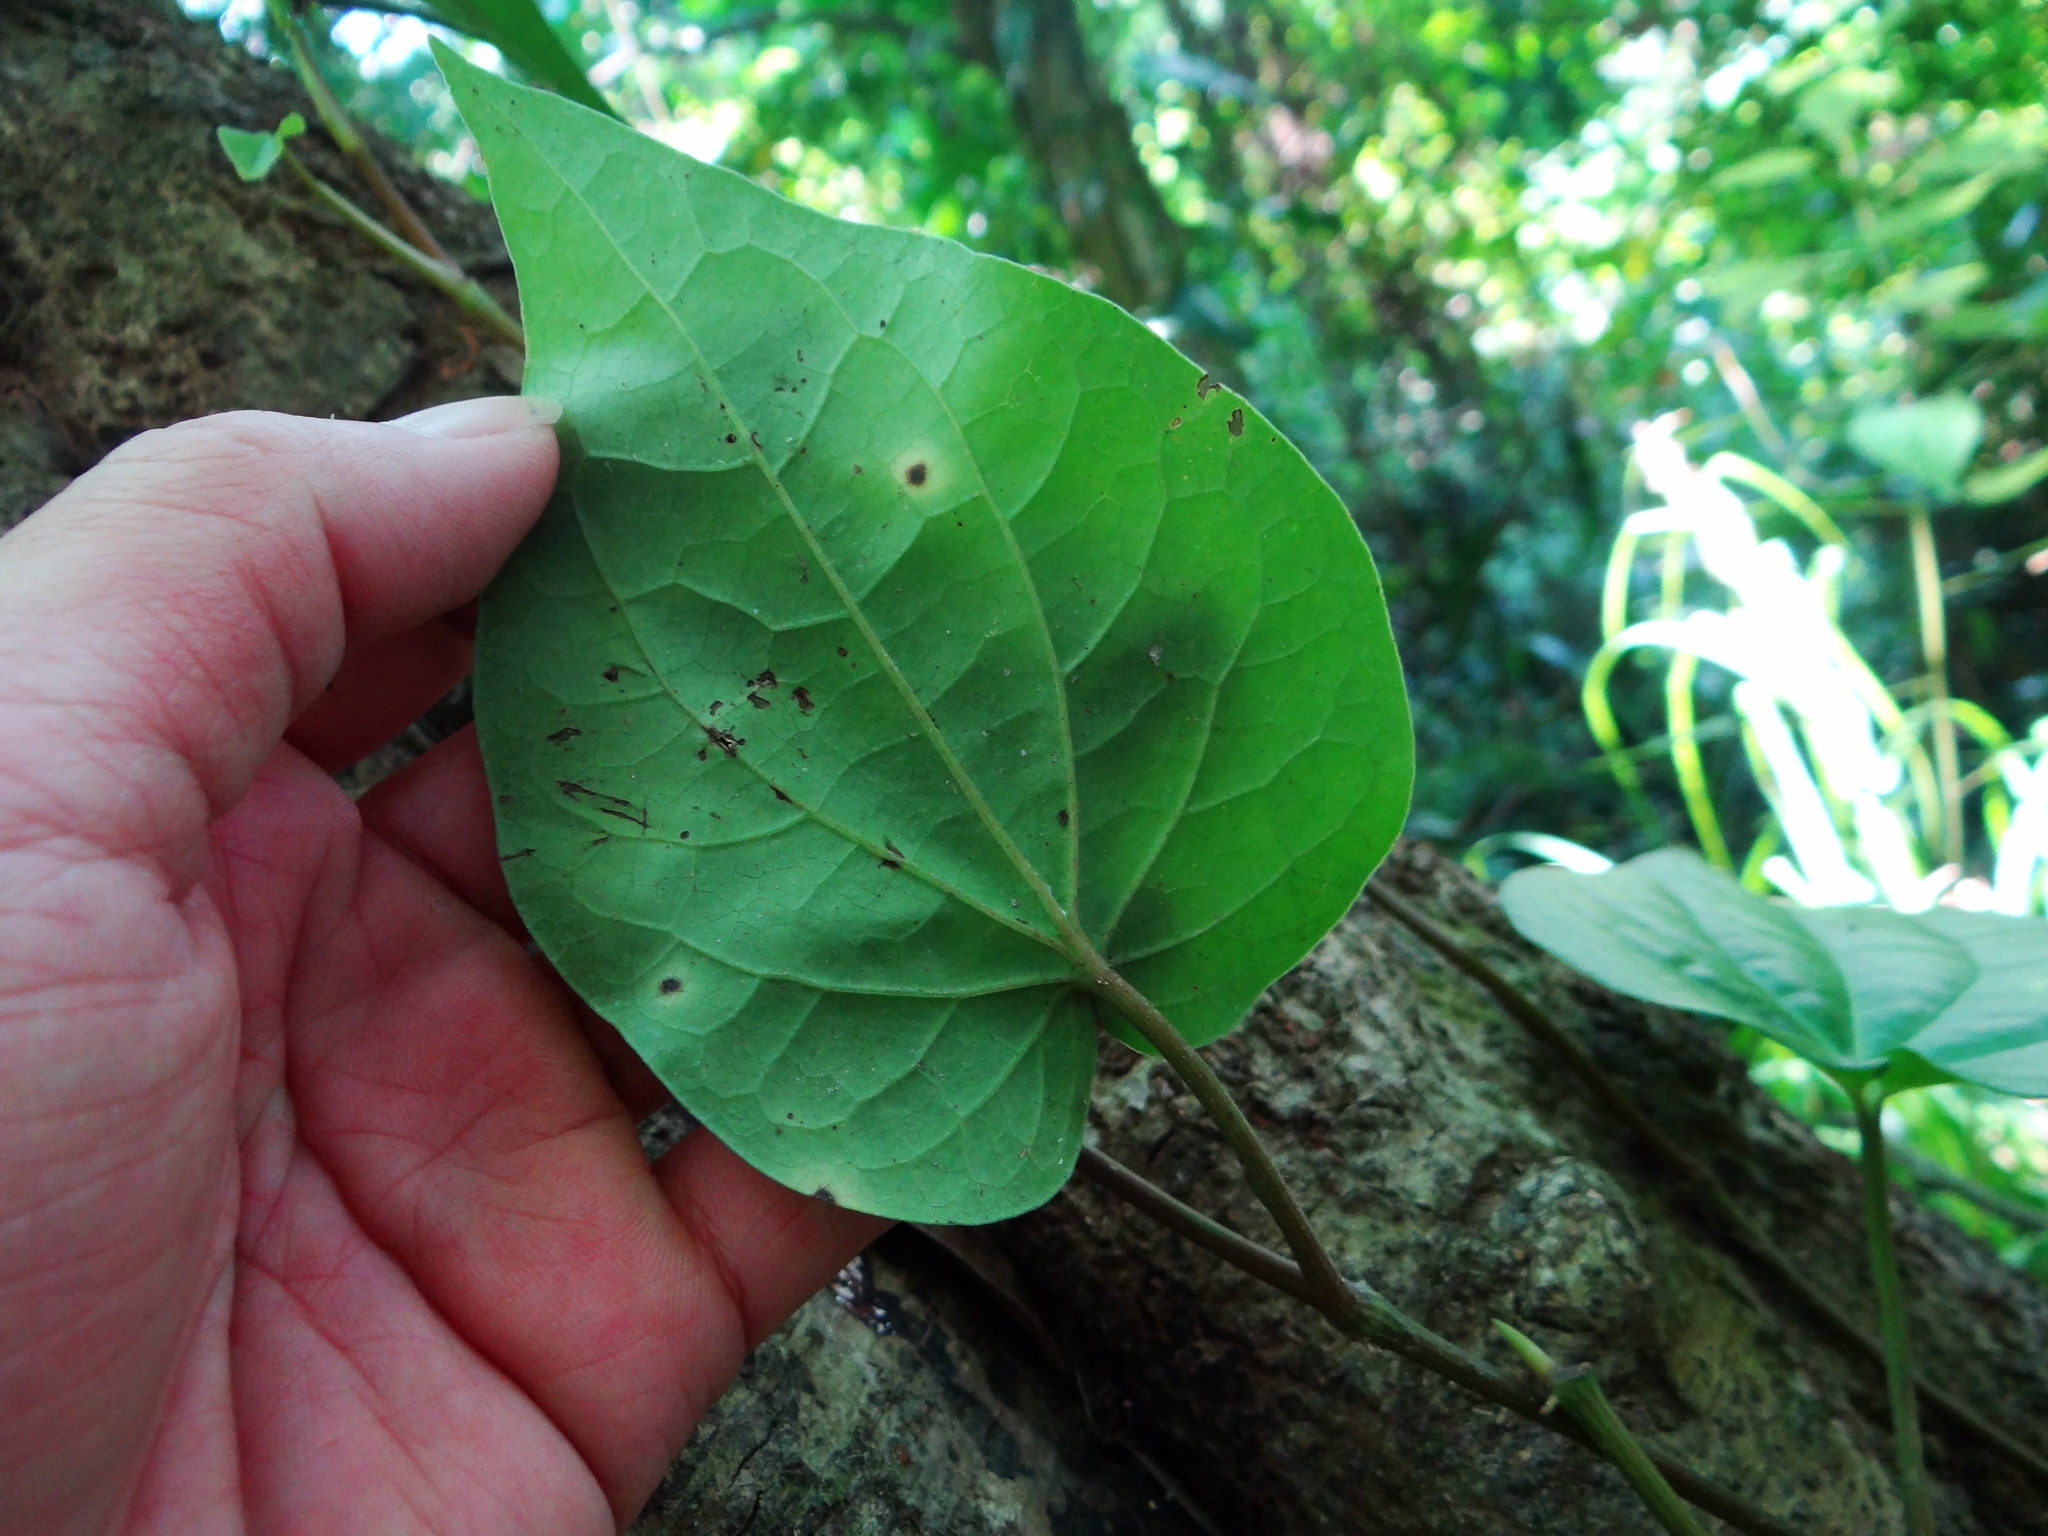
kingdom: Plantae
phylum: Tracheophyta
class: Magnoliopsida
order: Piperales
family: Piperaceae
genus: Piper
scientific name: Piper betle
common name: Betel pepper
